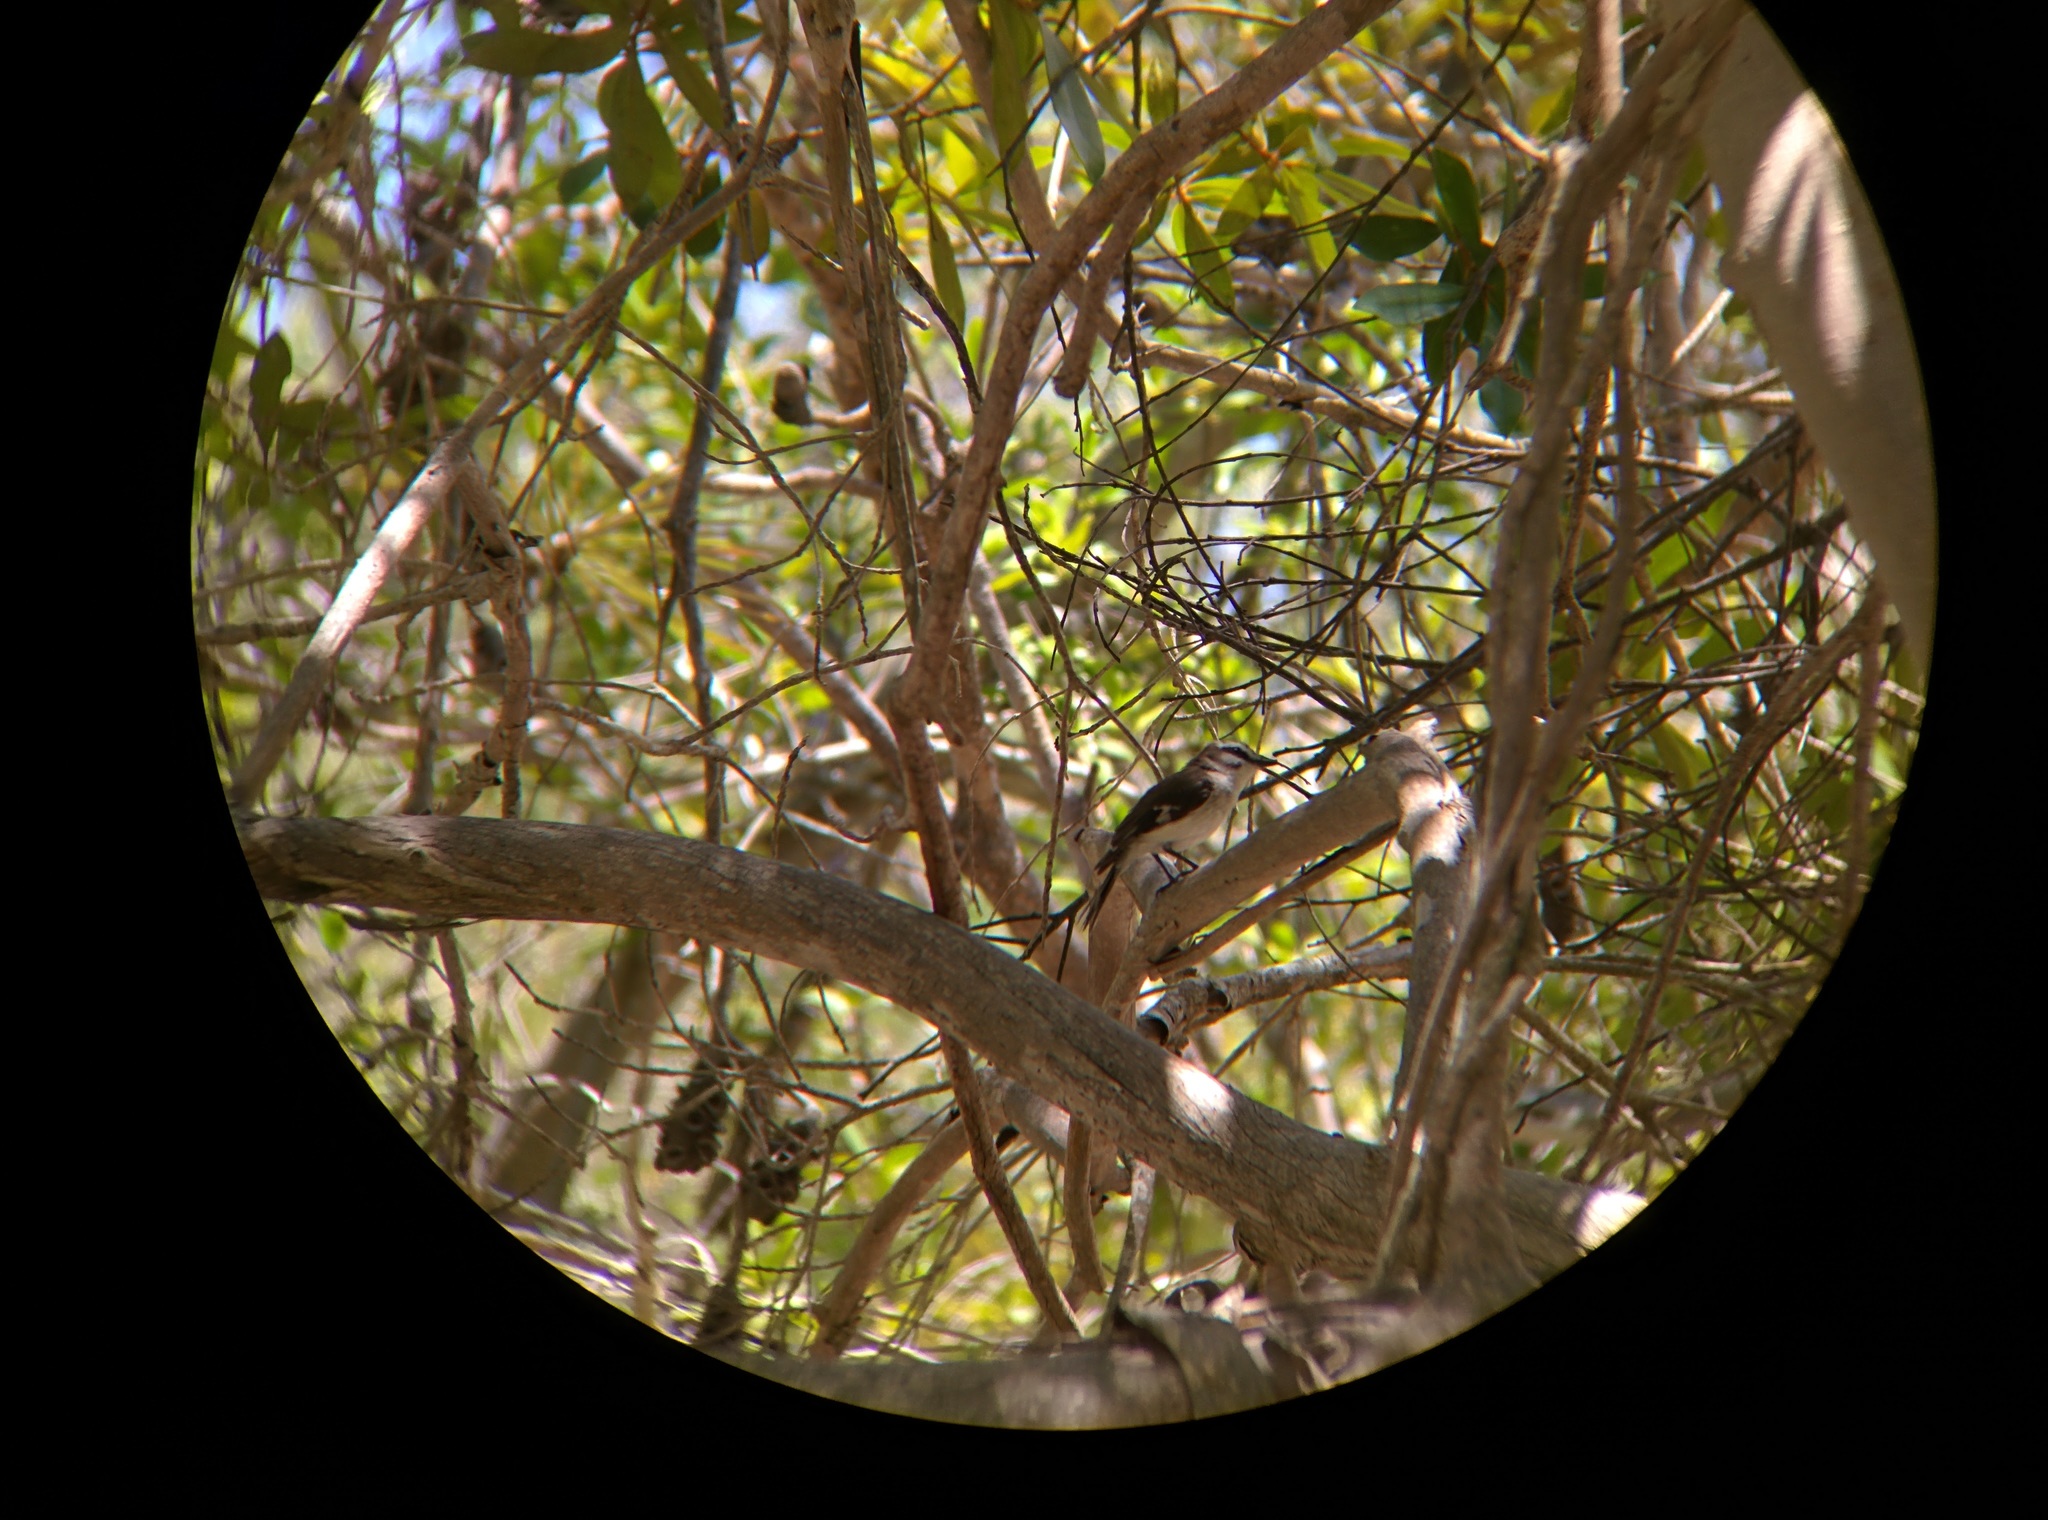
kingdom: Animalia
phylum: Chordata
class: Aves
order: Passeriformes
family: Petroicidae
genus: Poecilodryas
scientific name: Poecilodryas superciliosa
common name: White-browed robin
